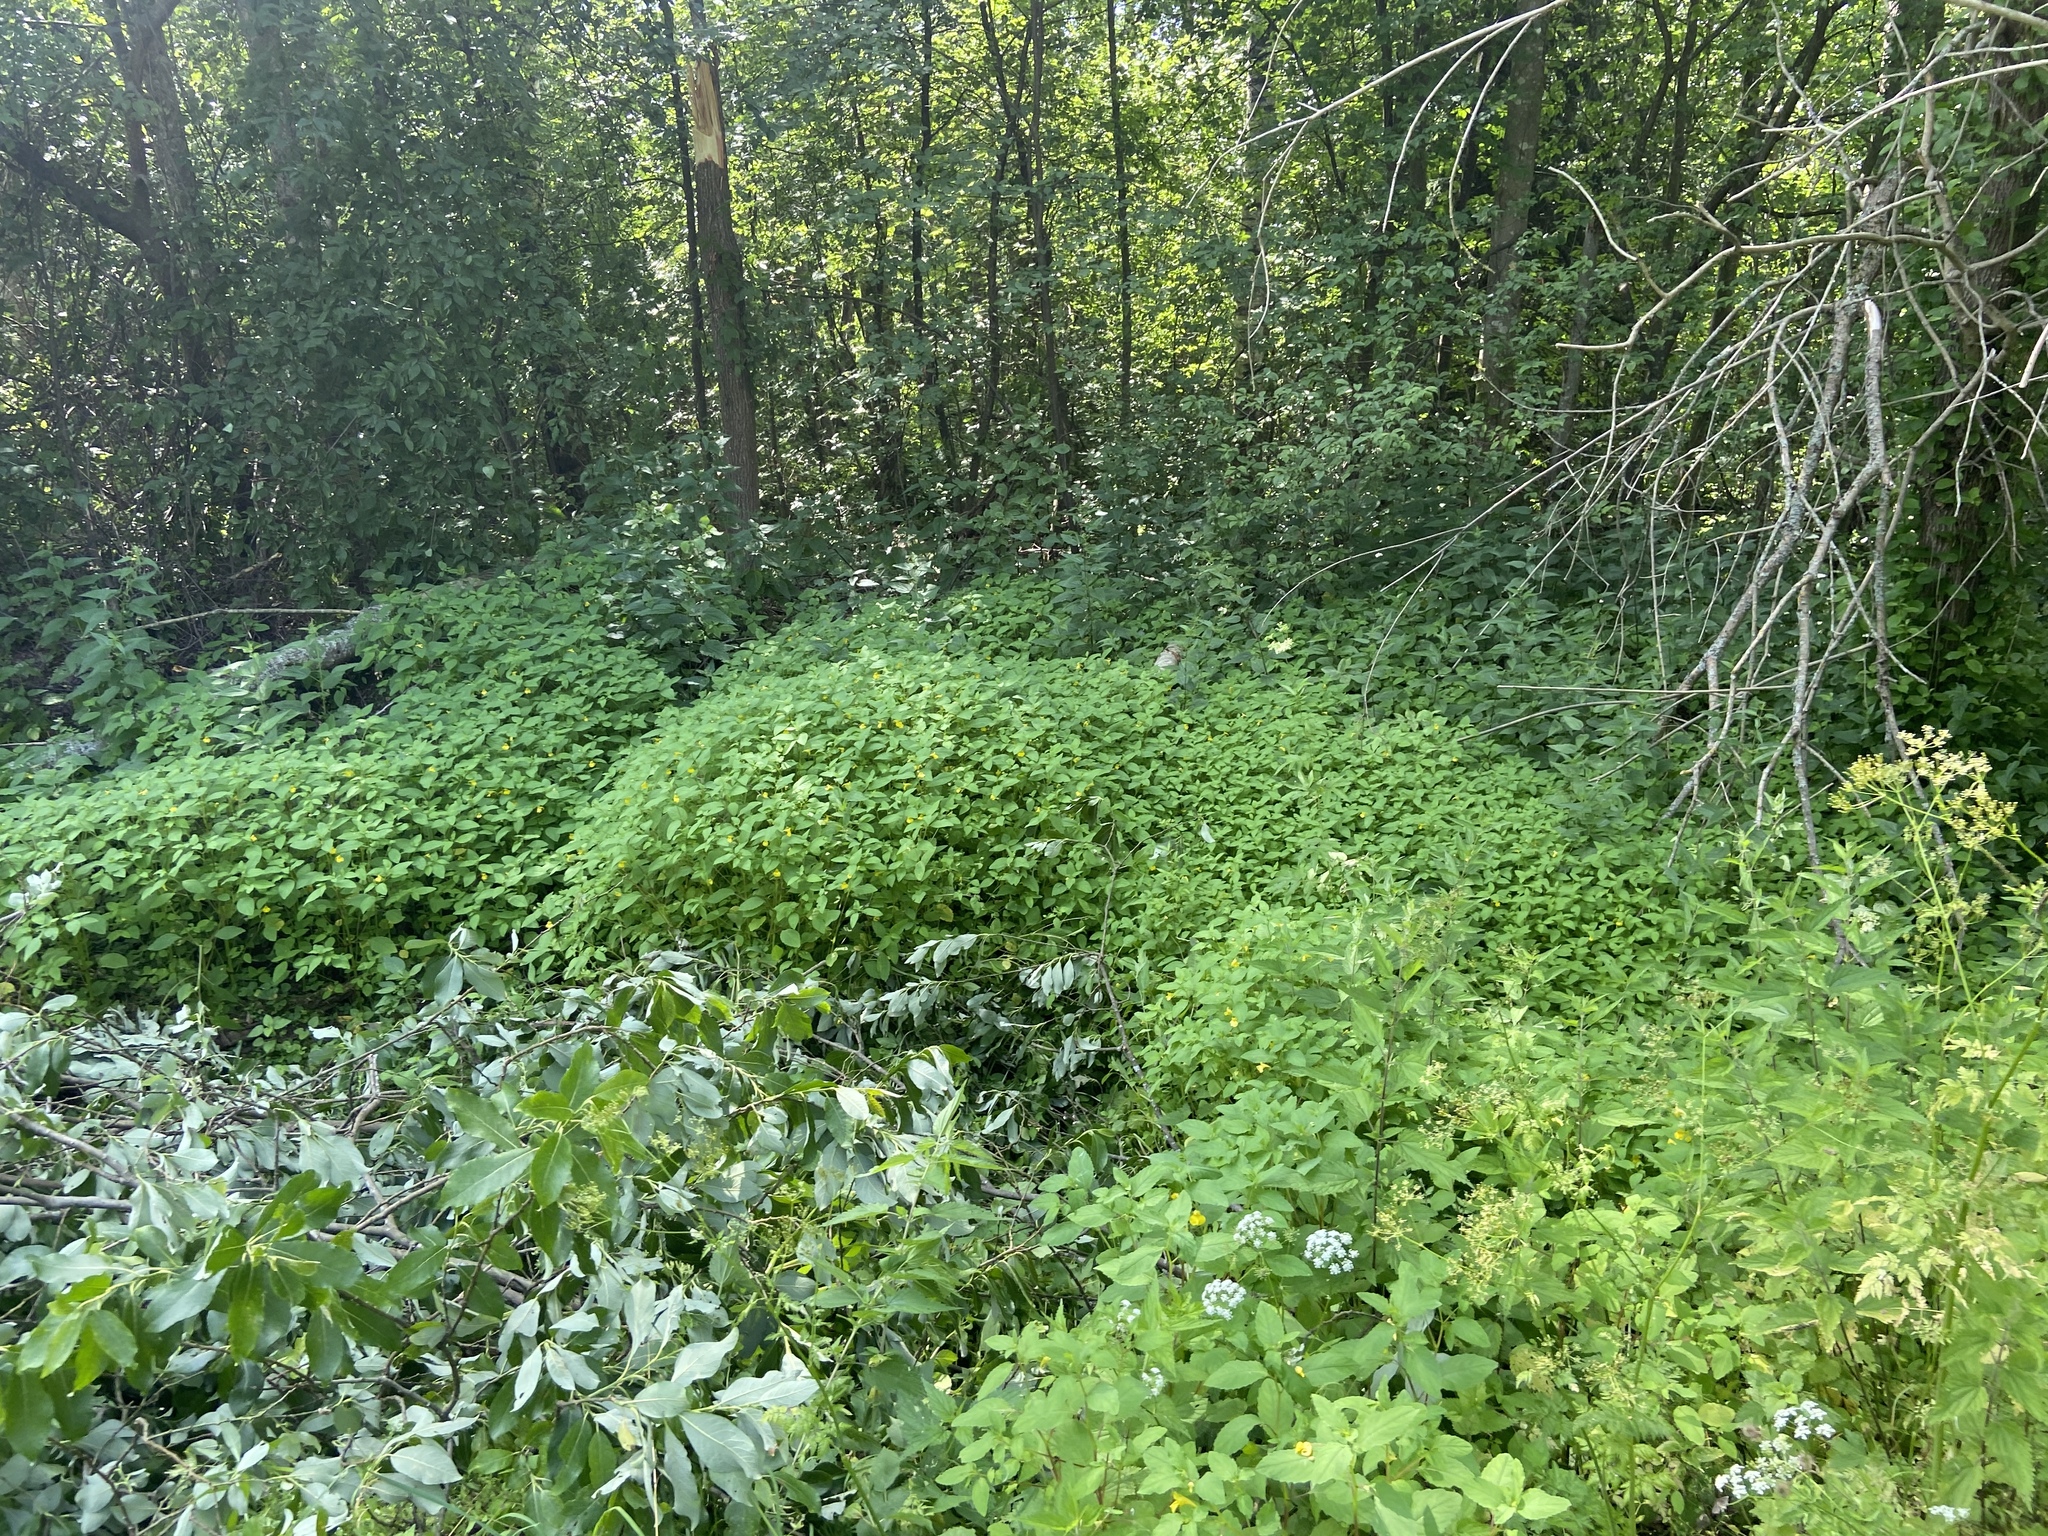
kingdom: Plantae
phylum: Tracheophyta
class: Magnoliopsida
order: Apiales
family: Apiaceae
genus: Aegopodium
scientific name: Aegopodium podagraria
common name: Ground-elder
